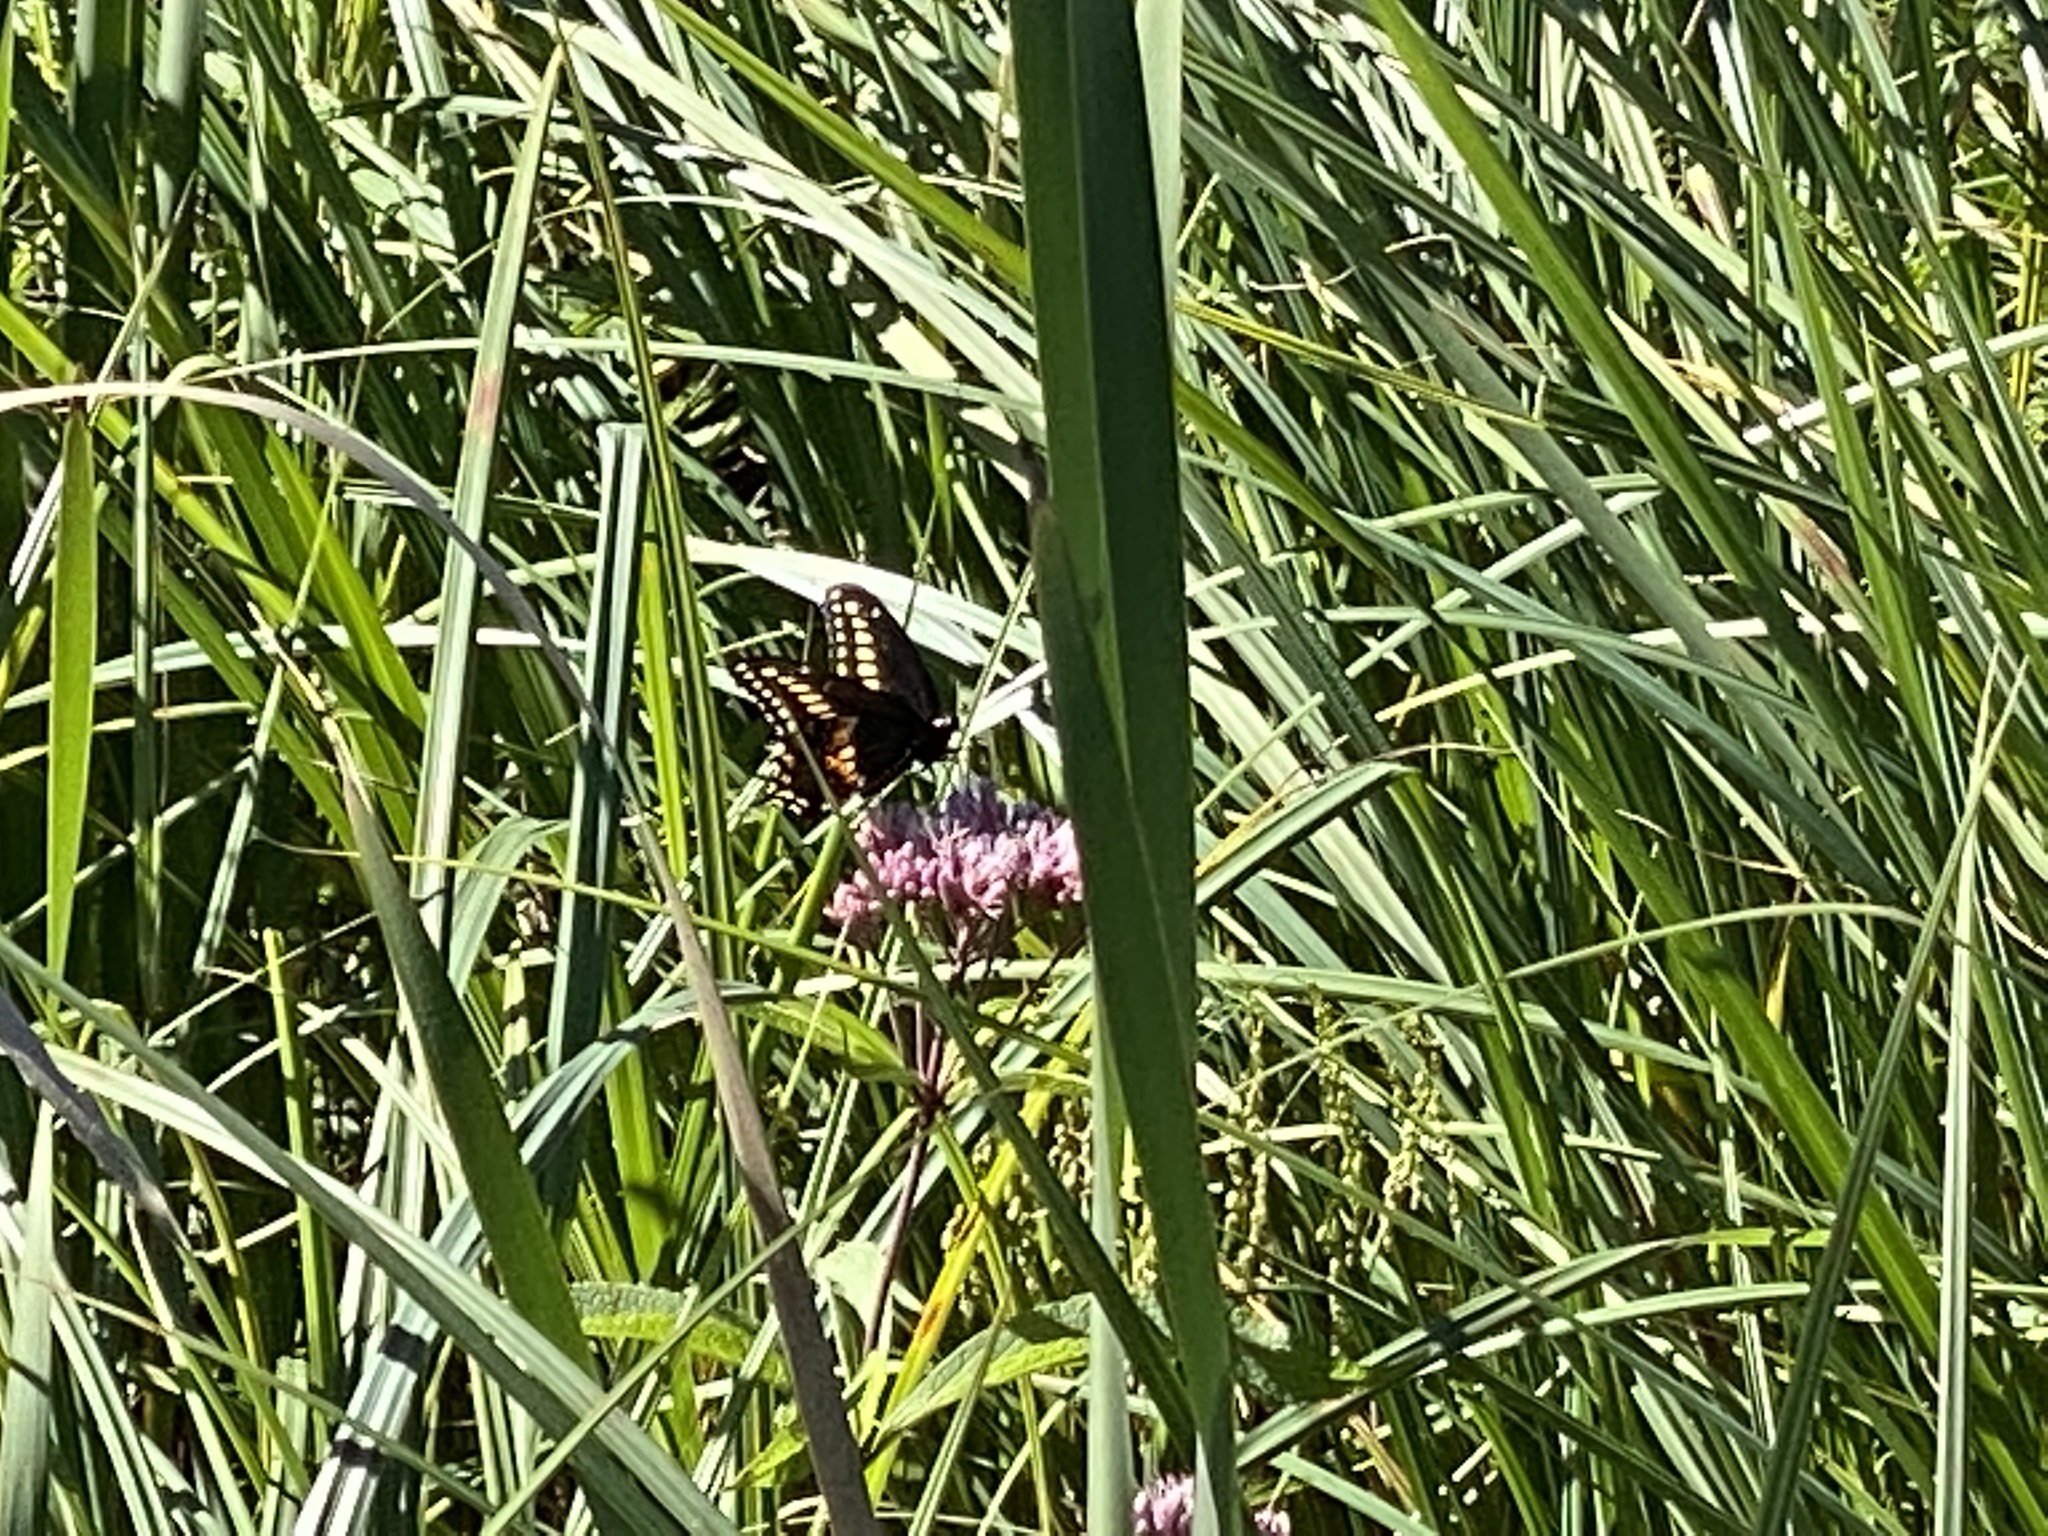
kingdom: Animalia
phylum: Arthropoda
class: Insecta
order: Lepidoptera
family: Papilionidae
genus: Papilio
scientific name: Papilio polyxenes
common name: Black swallowtail
